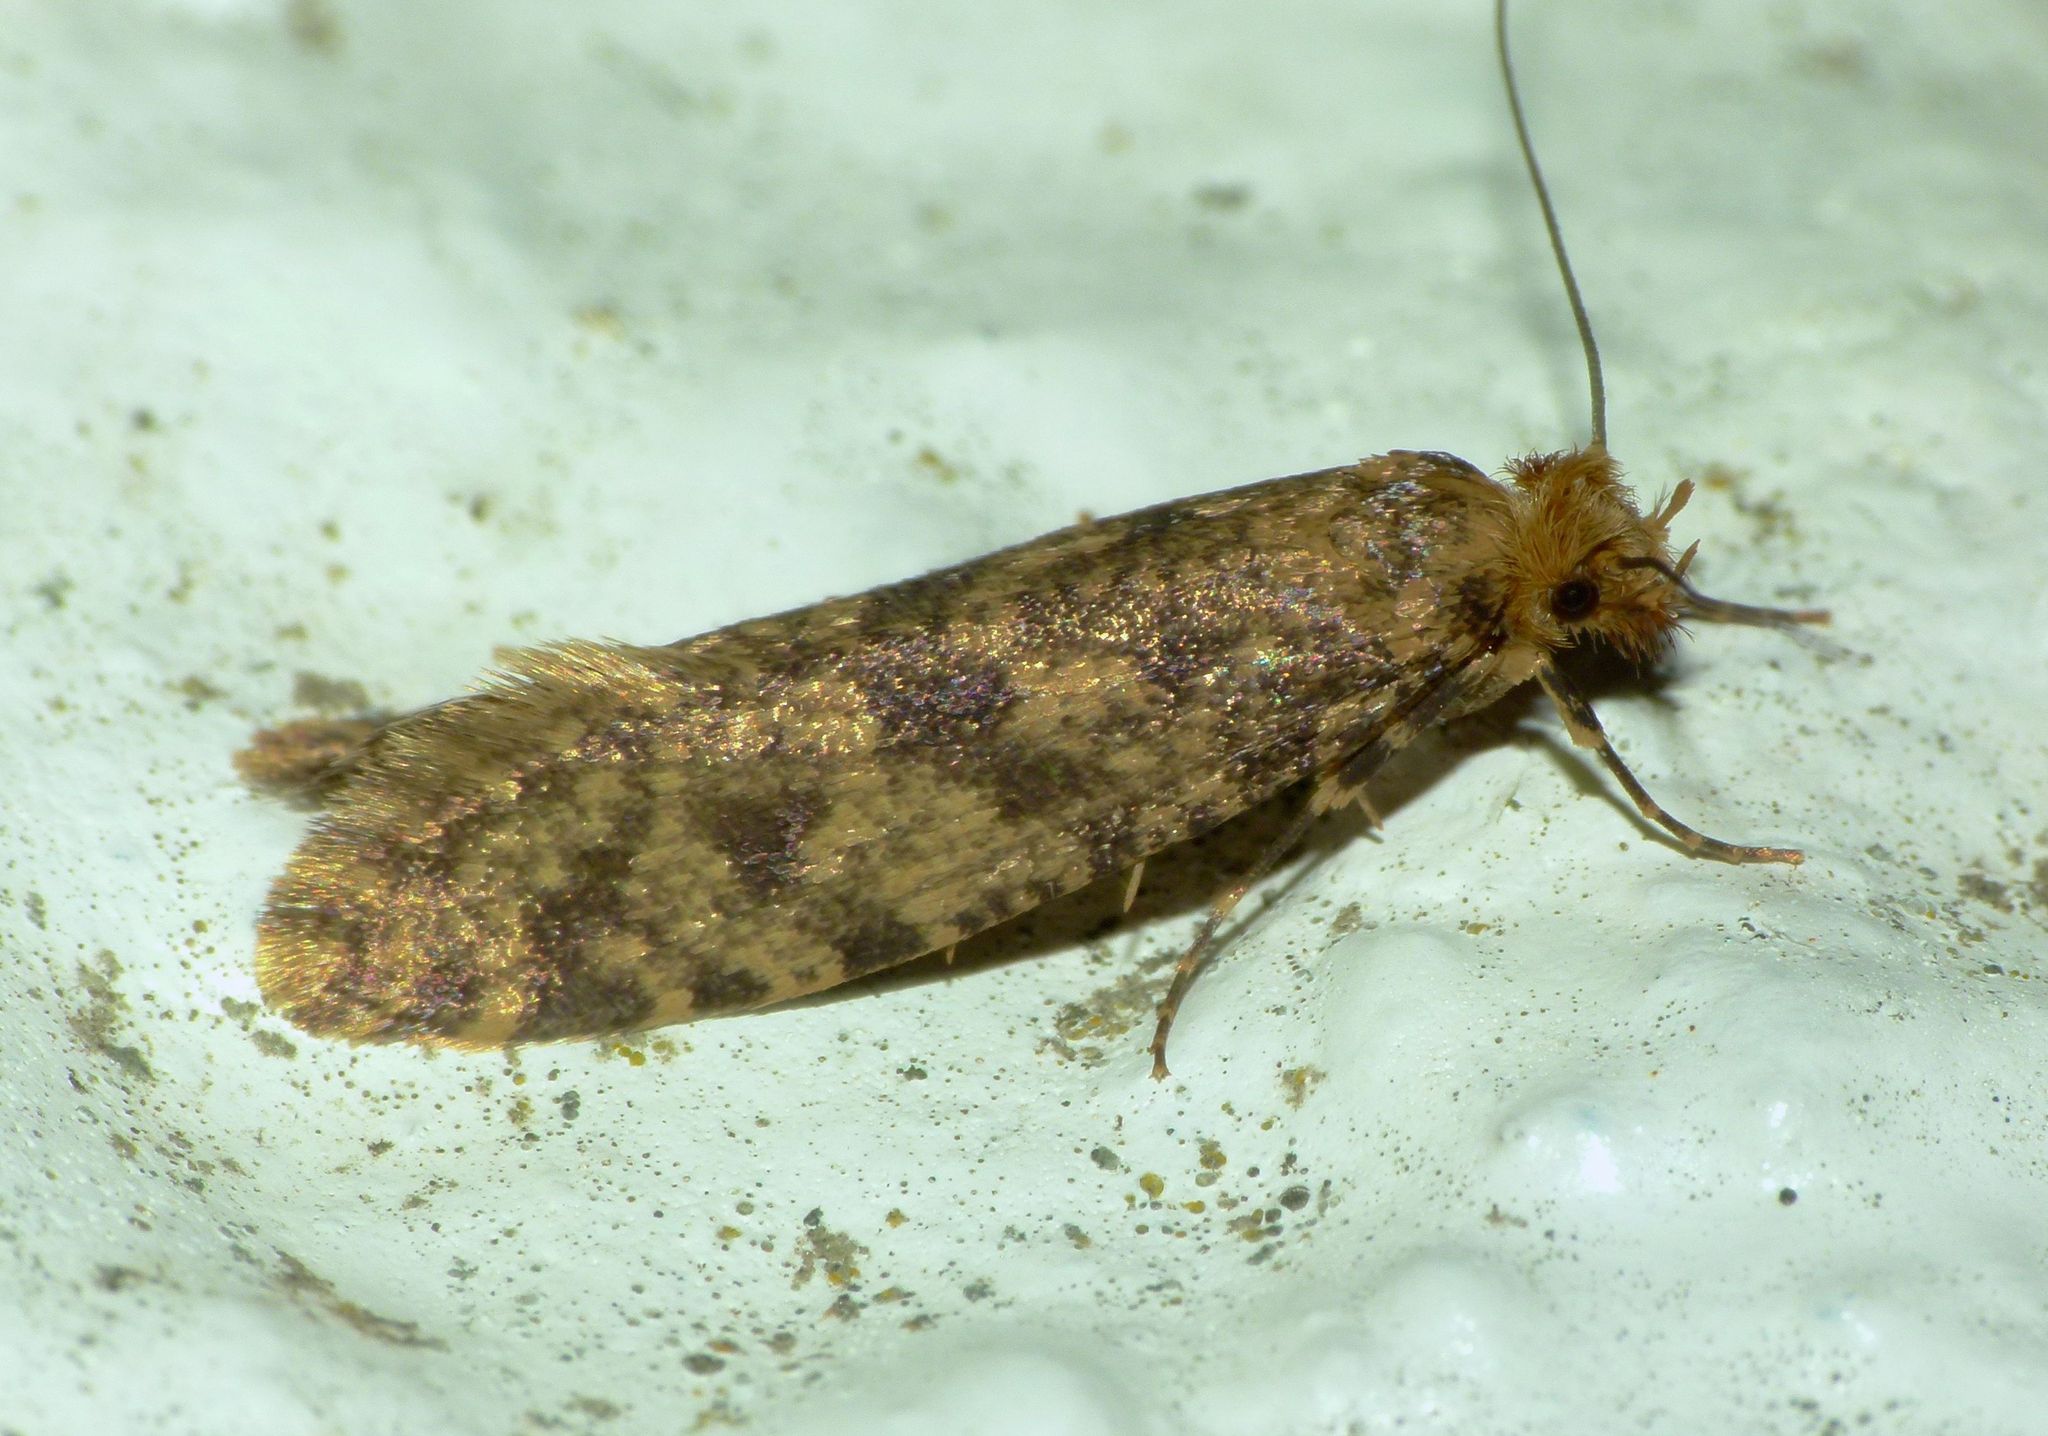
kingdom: Animalia
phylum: Arthropoda
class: Insecta
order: Lepidoptera
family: Tineidae
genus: Archyala
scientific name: Archyala terranea
